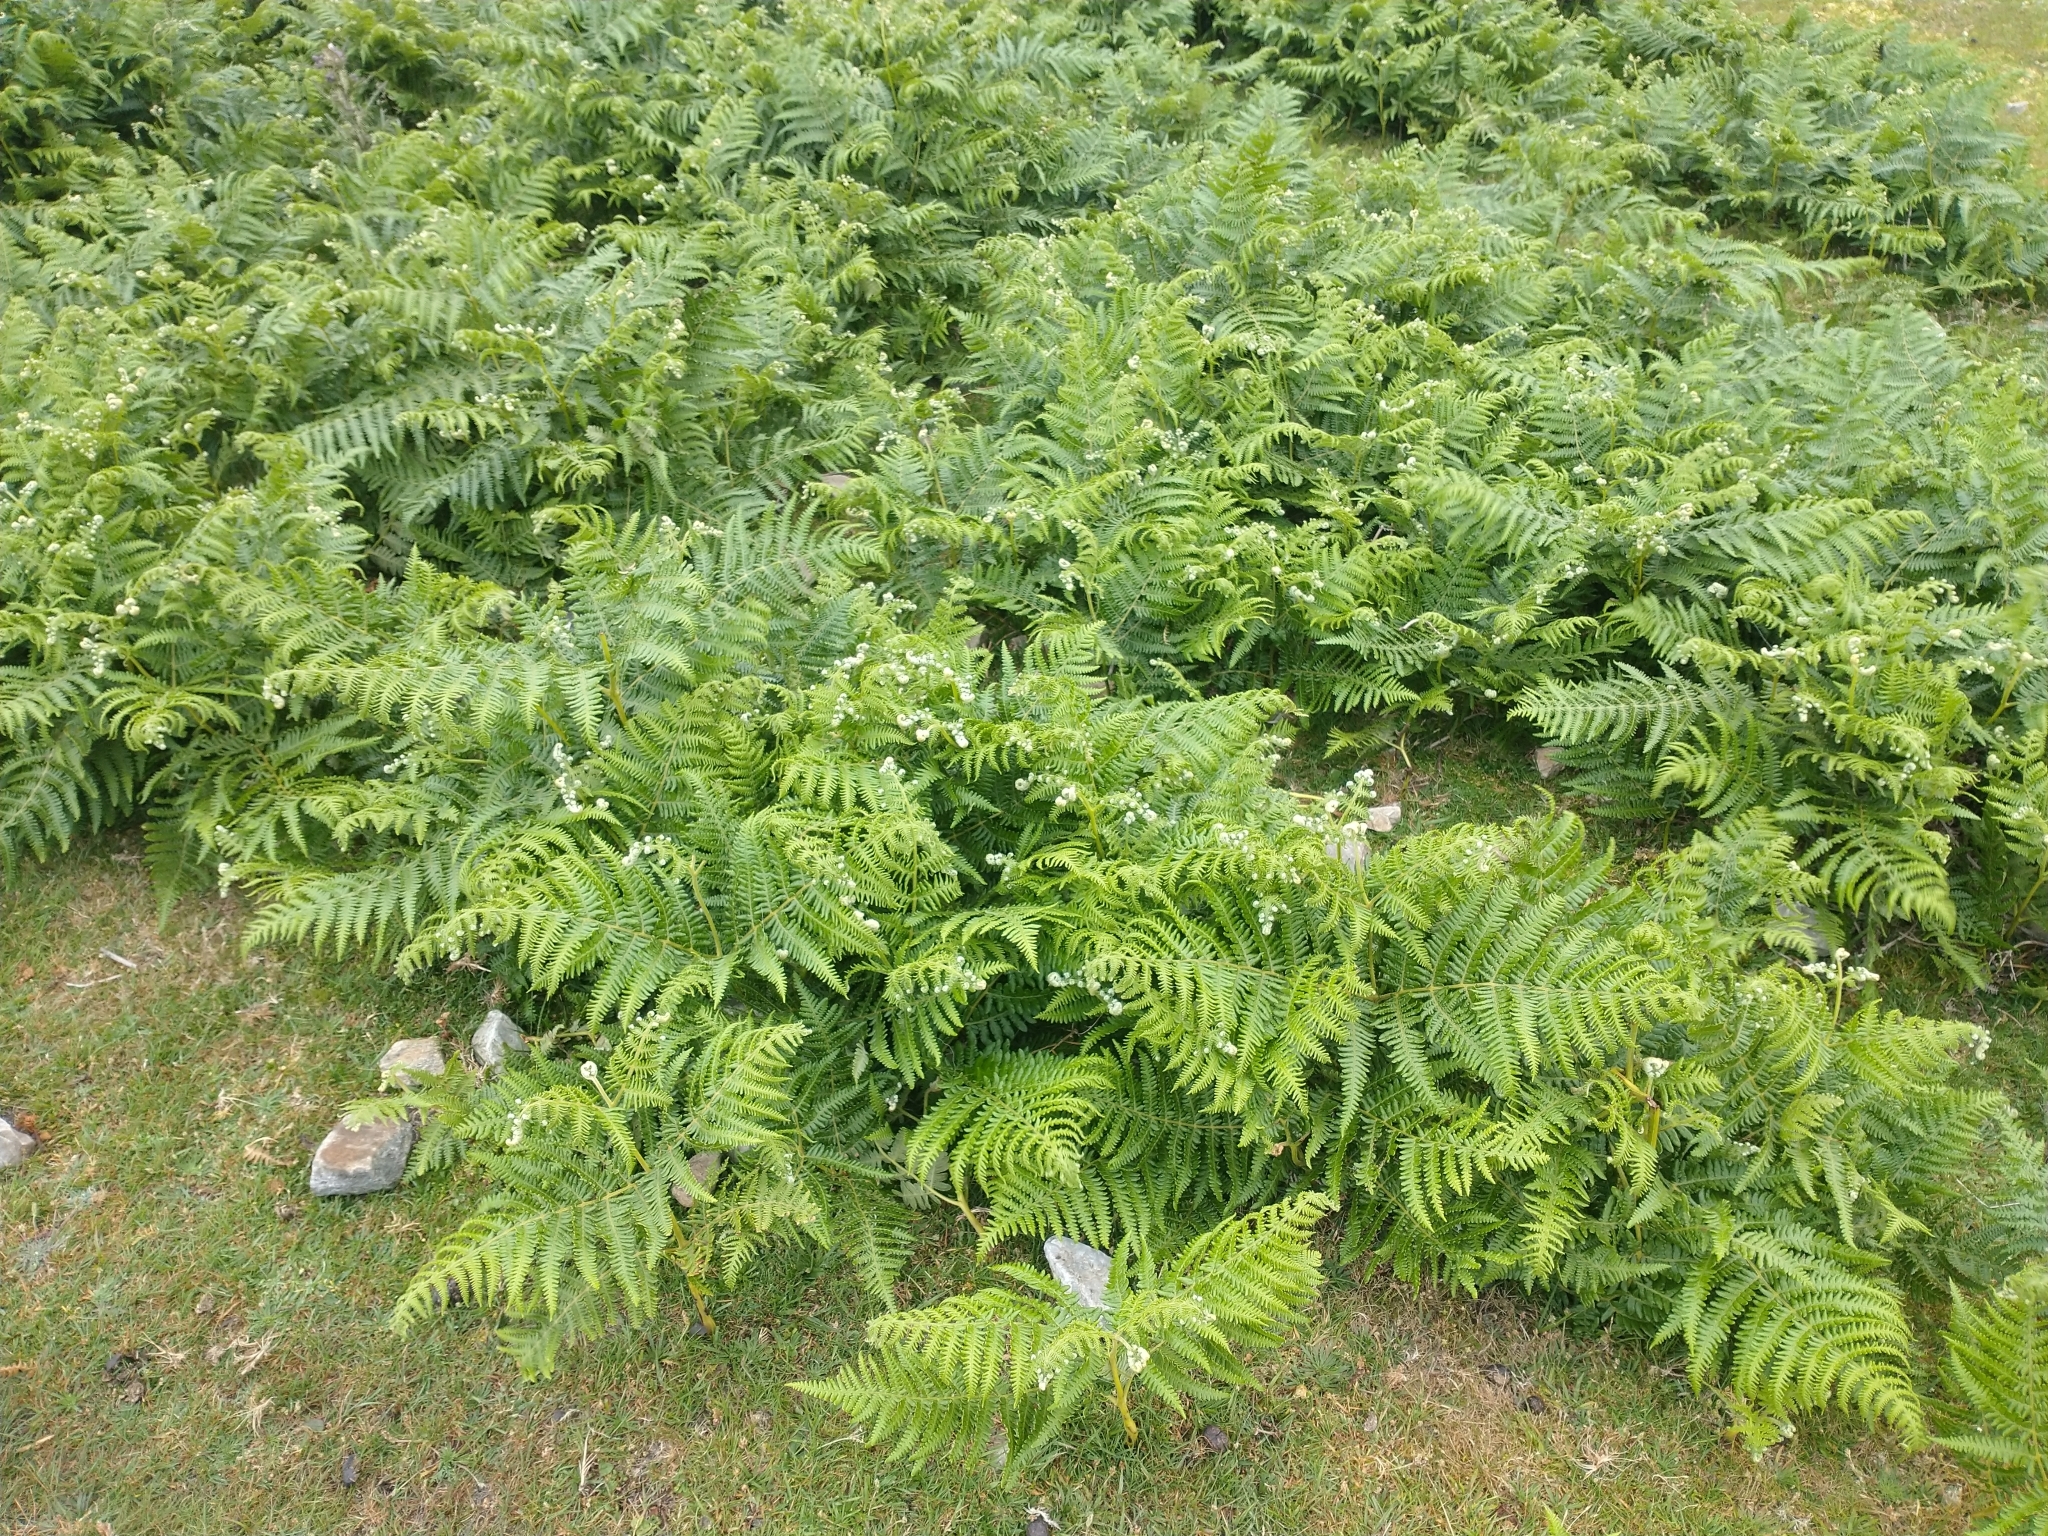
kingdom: Plantae
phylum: Tracheophyta
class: Polypodiopsida
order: Polypodiales
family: Dennstaedtiaceae
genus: Pteridium
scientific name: Pteridium aquilinum
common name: Bracken
